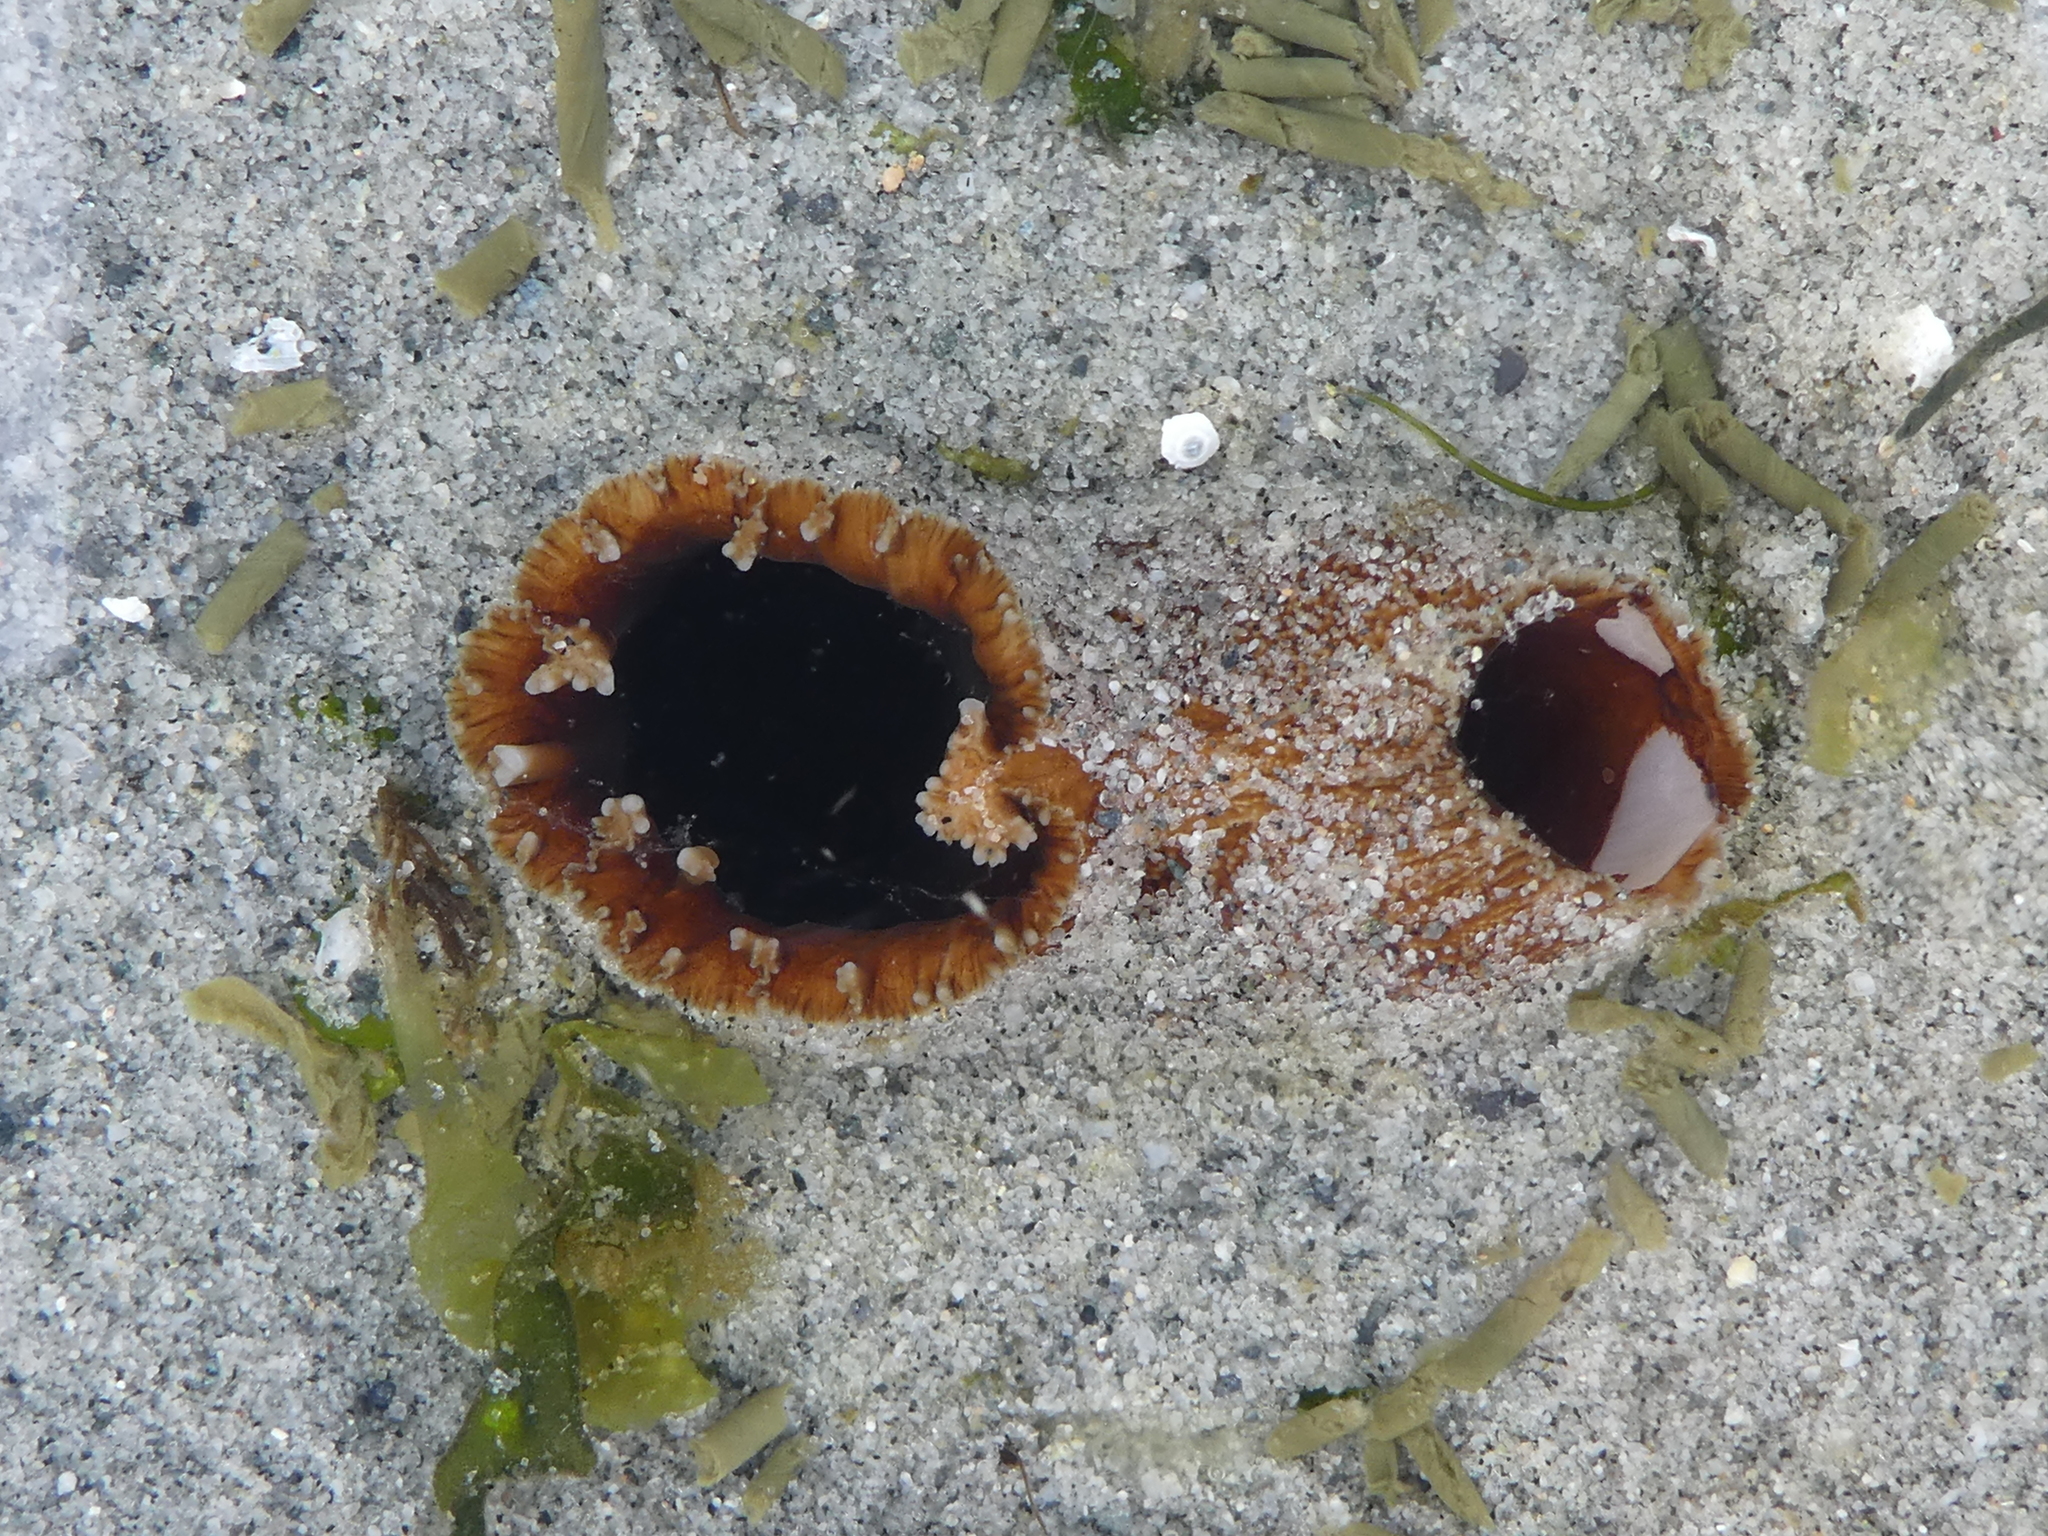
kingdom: Animalia
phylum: Mollusca
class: Bivalvia
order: Myida
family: Pholadidae
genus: Zirfaea
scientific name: Zirfaea pilsbryi
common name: Rough piddock
